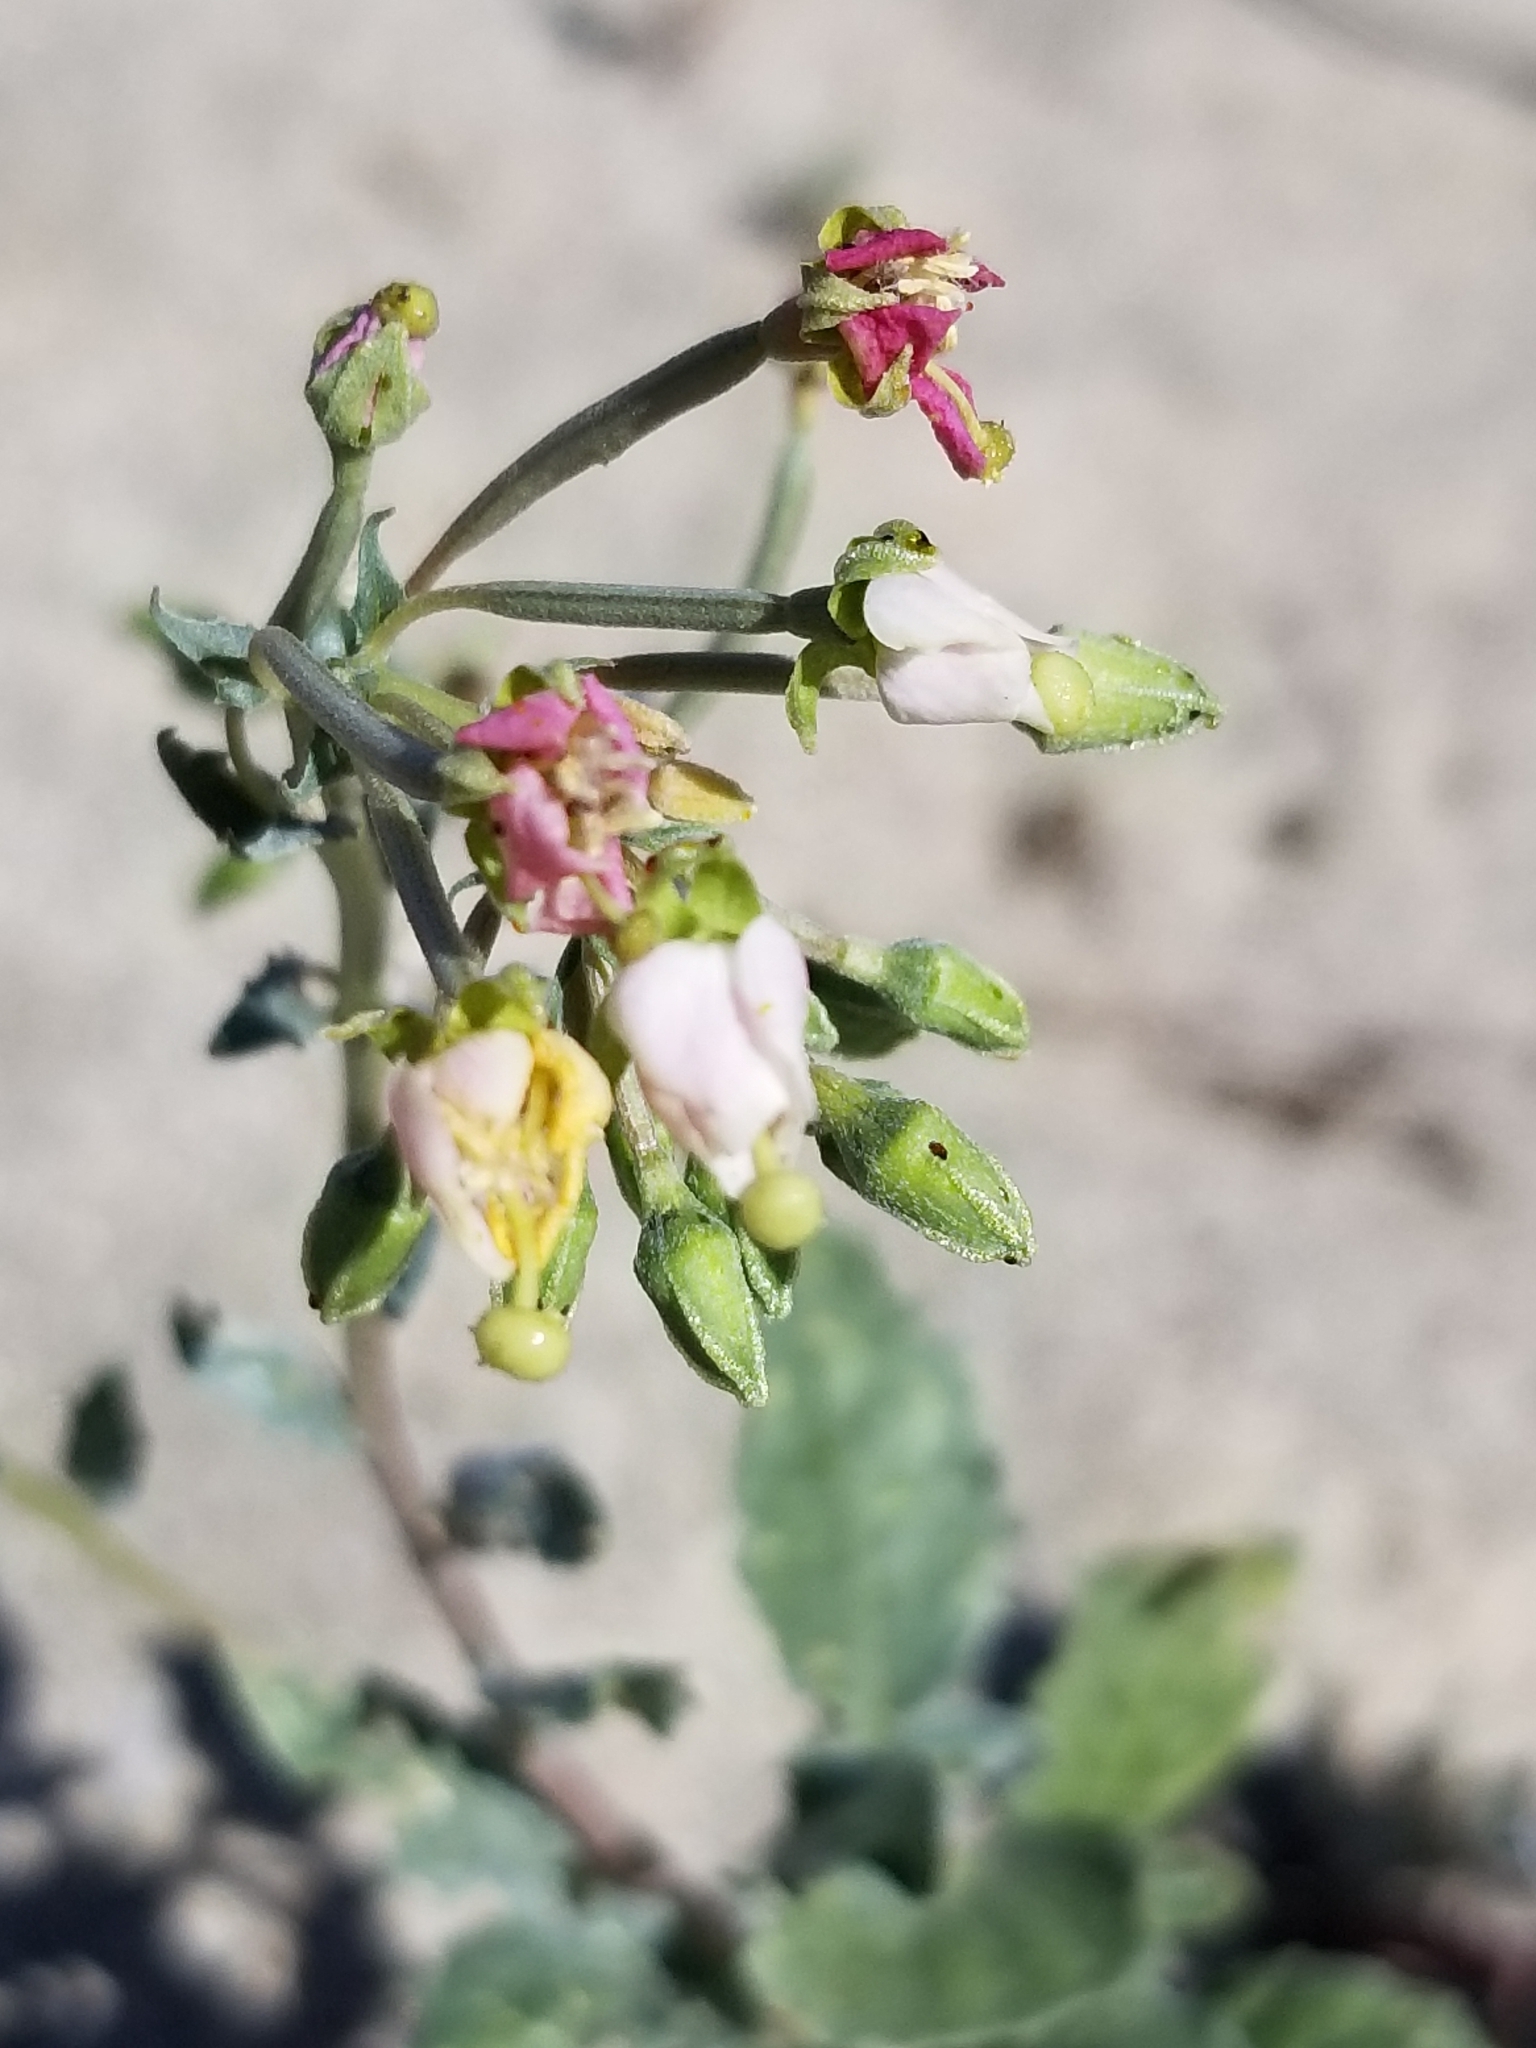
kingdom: Plantae
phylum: Tracheophyta
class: Magnoliopsida
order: Myrtales
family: Onagraceae
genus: Chylismia
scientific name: Chylismia claviformis
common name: Browneyes
